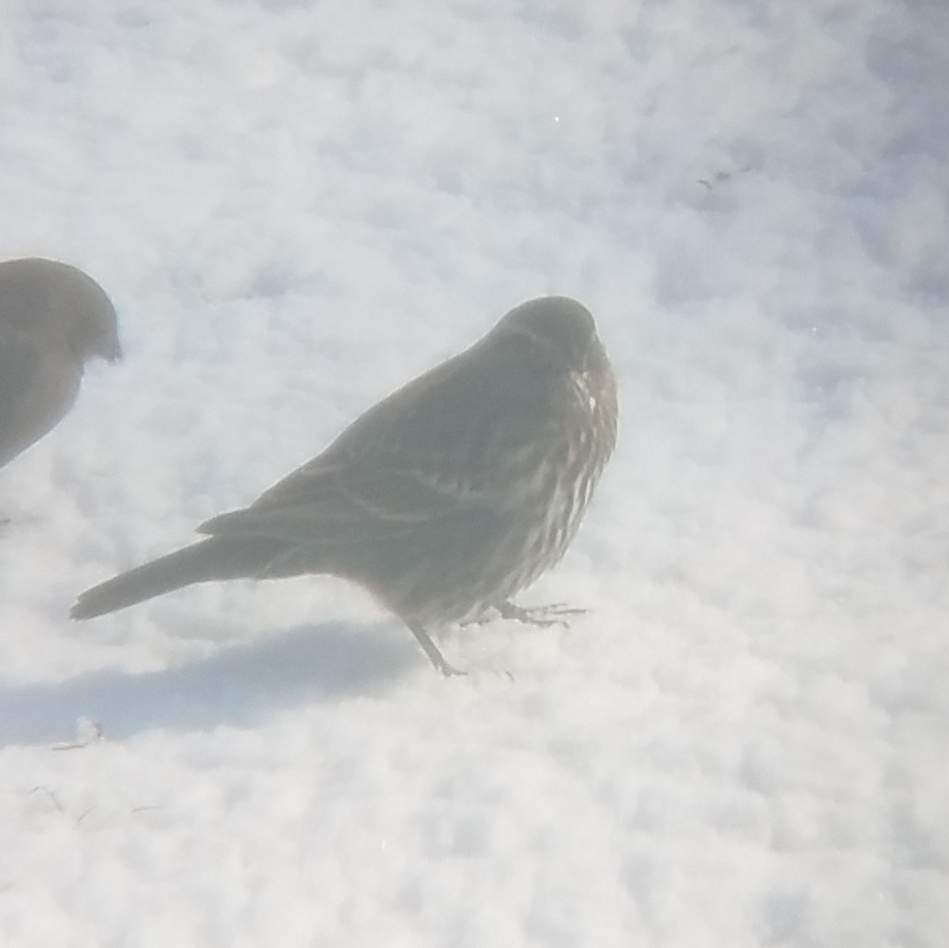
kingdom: Animalia
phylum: Chordata
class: Aves
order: Passeriformes
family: Icteridae
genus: Agelaius
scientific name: Agelaius phoeniceus
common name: Red-winged blackbird
